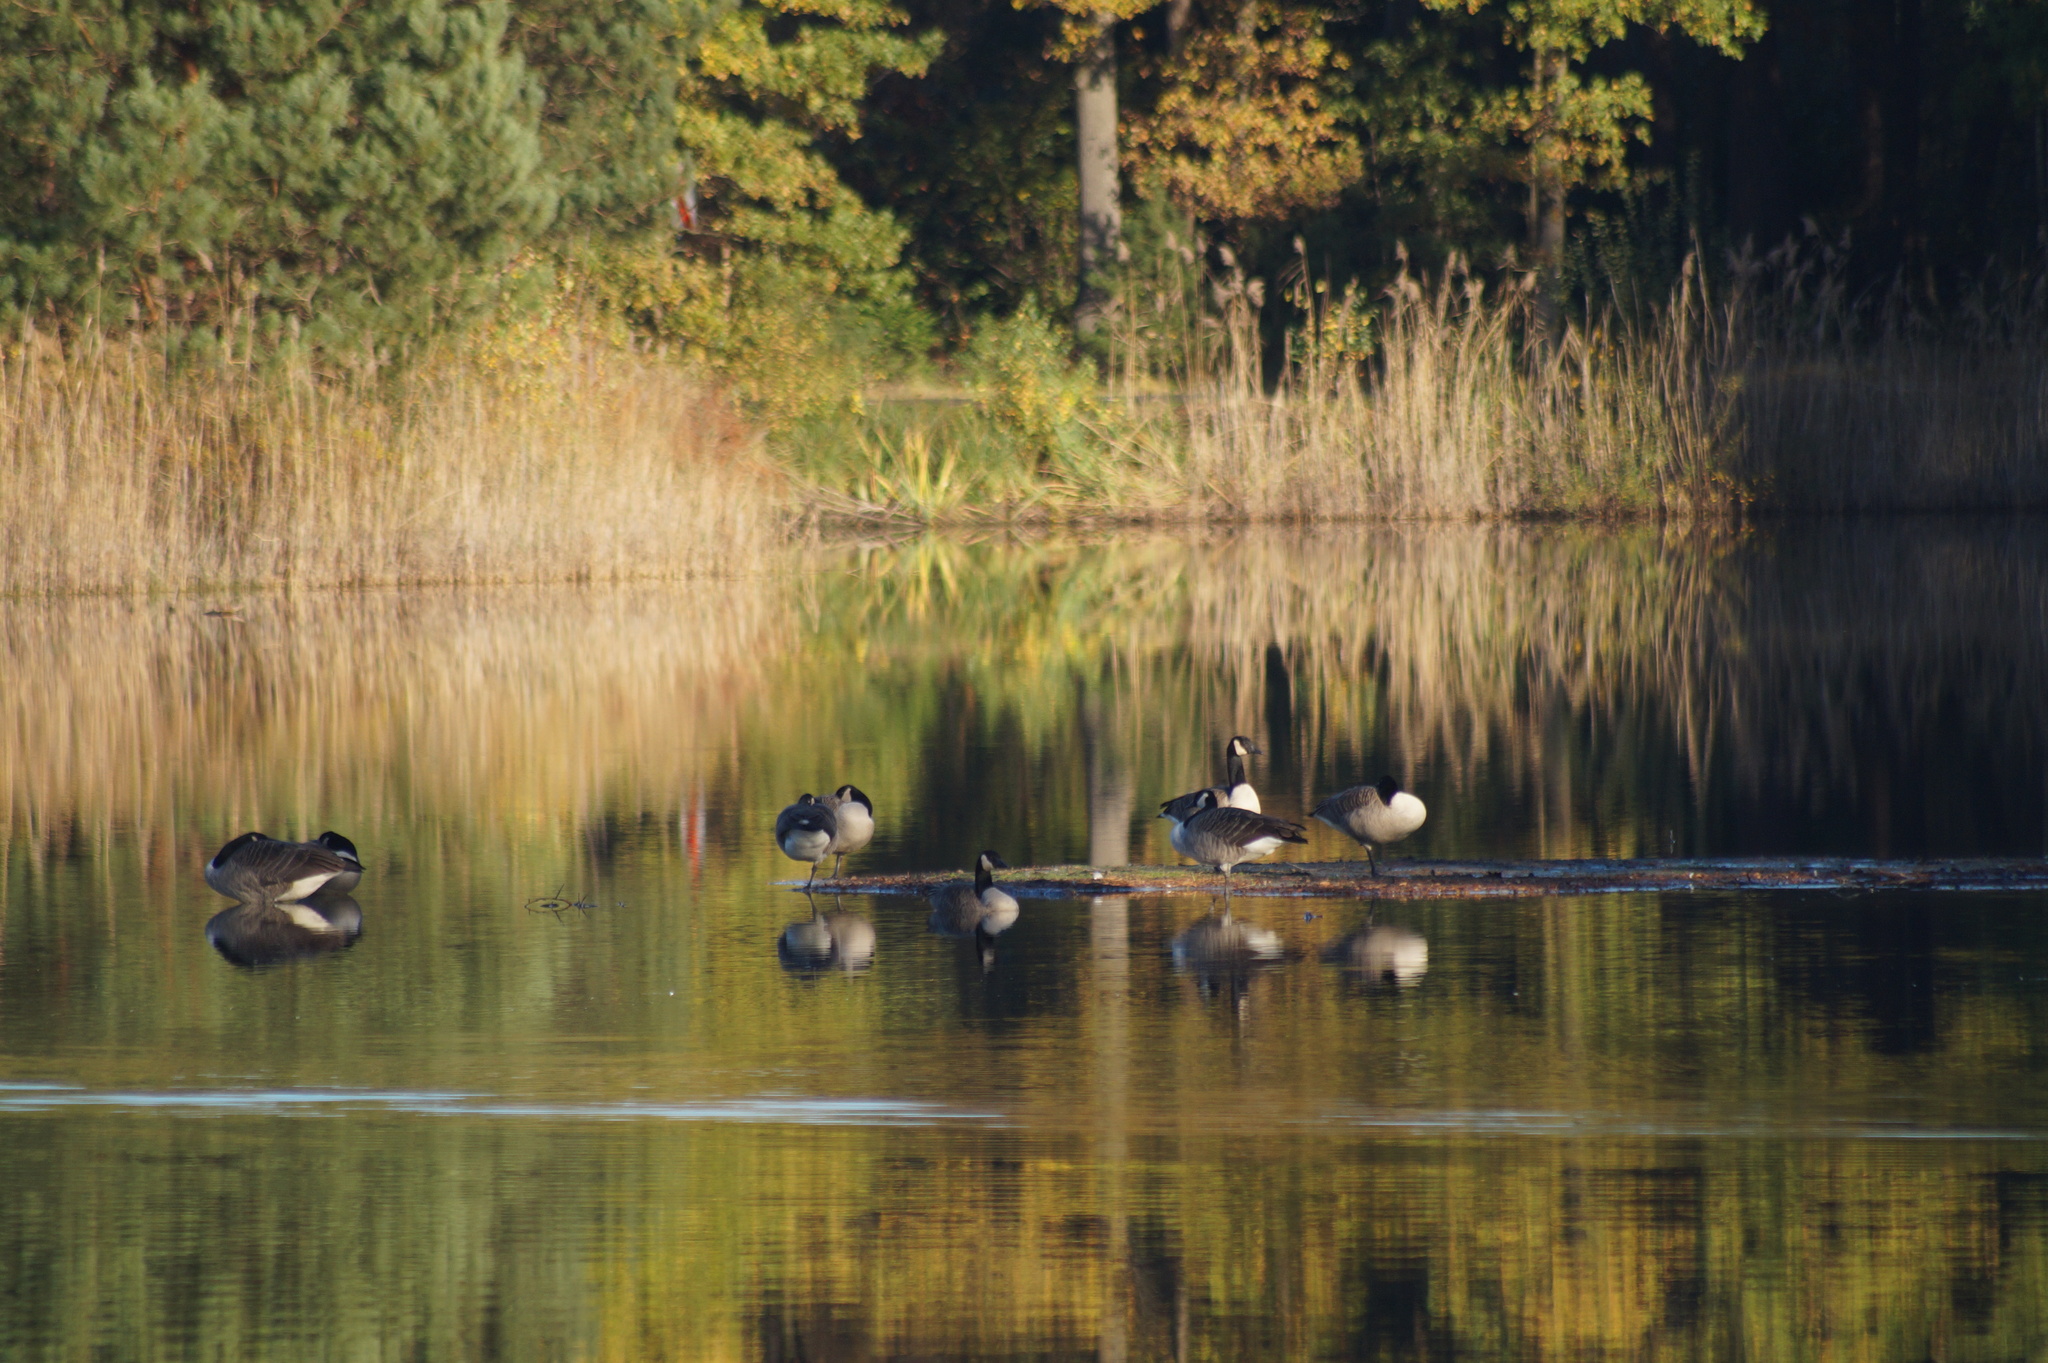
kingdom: Animalia
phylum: Chordata
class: Aves
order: Anseriformes
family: Anatidae
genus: Branta
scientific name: Branta canadensis
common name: Canada goose
